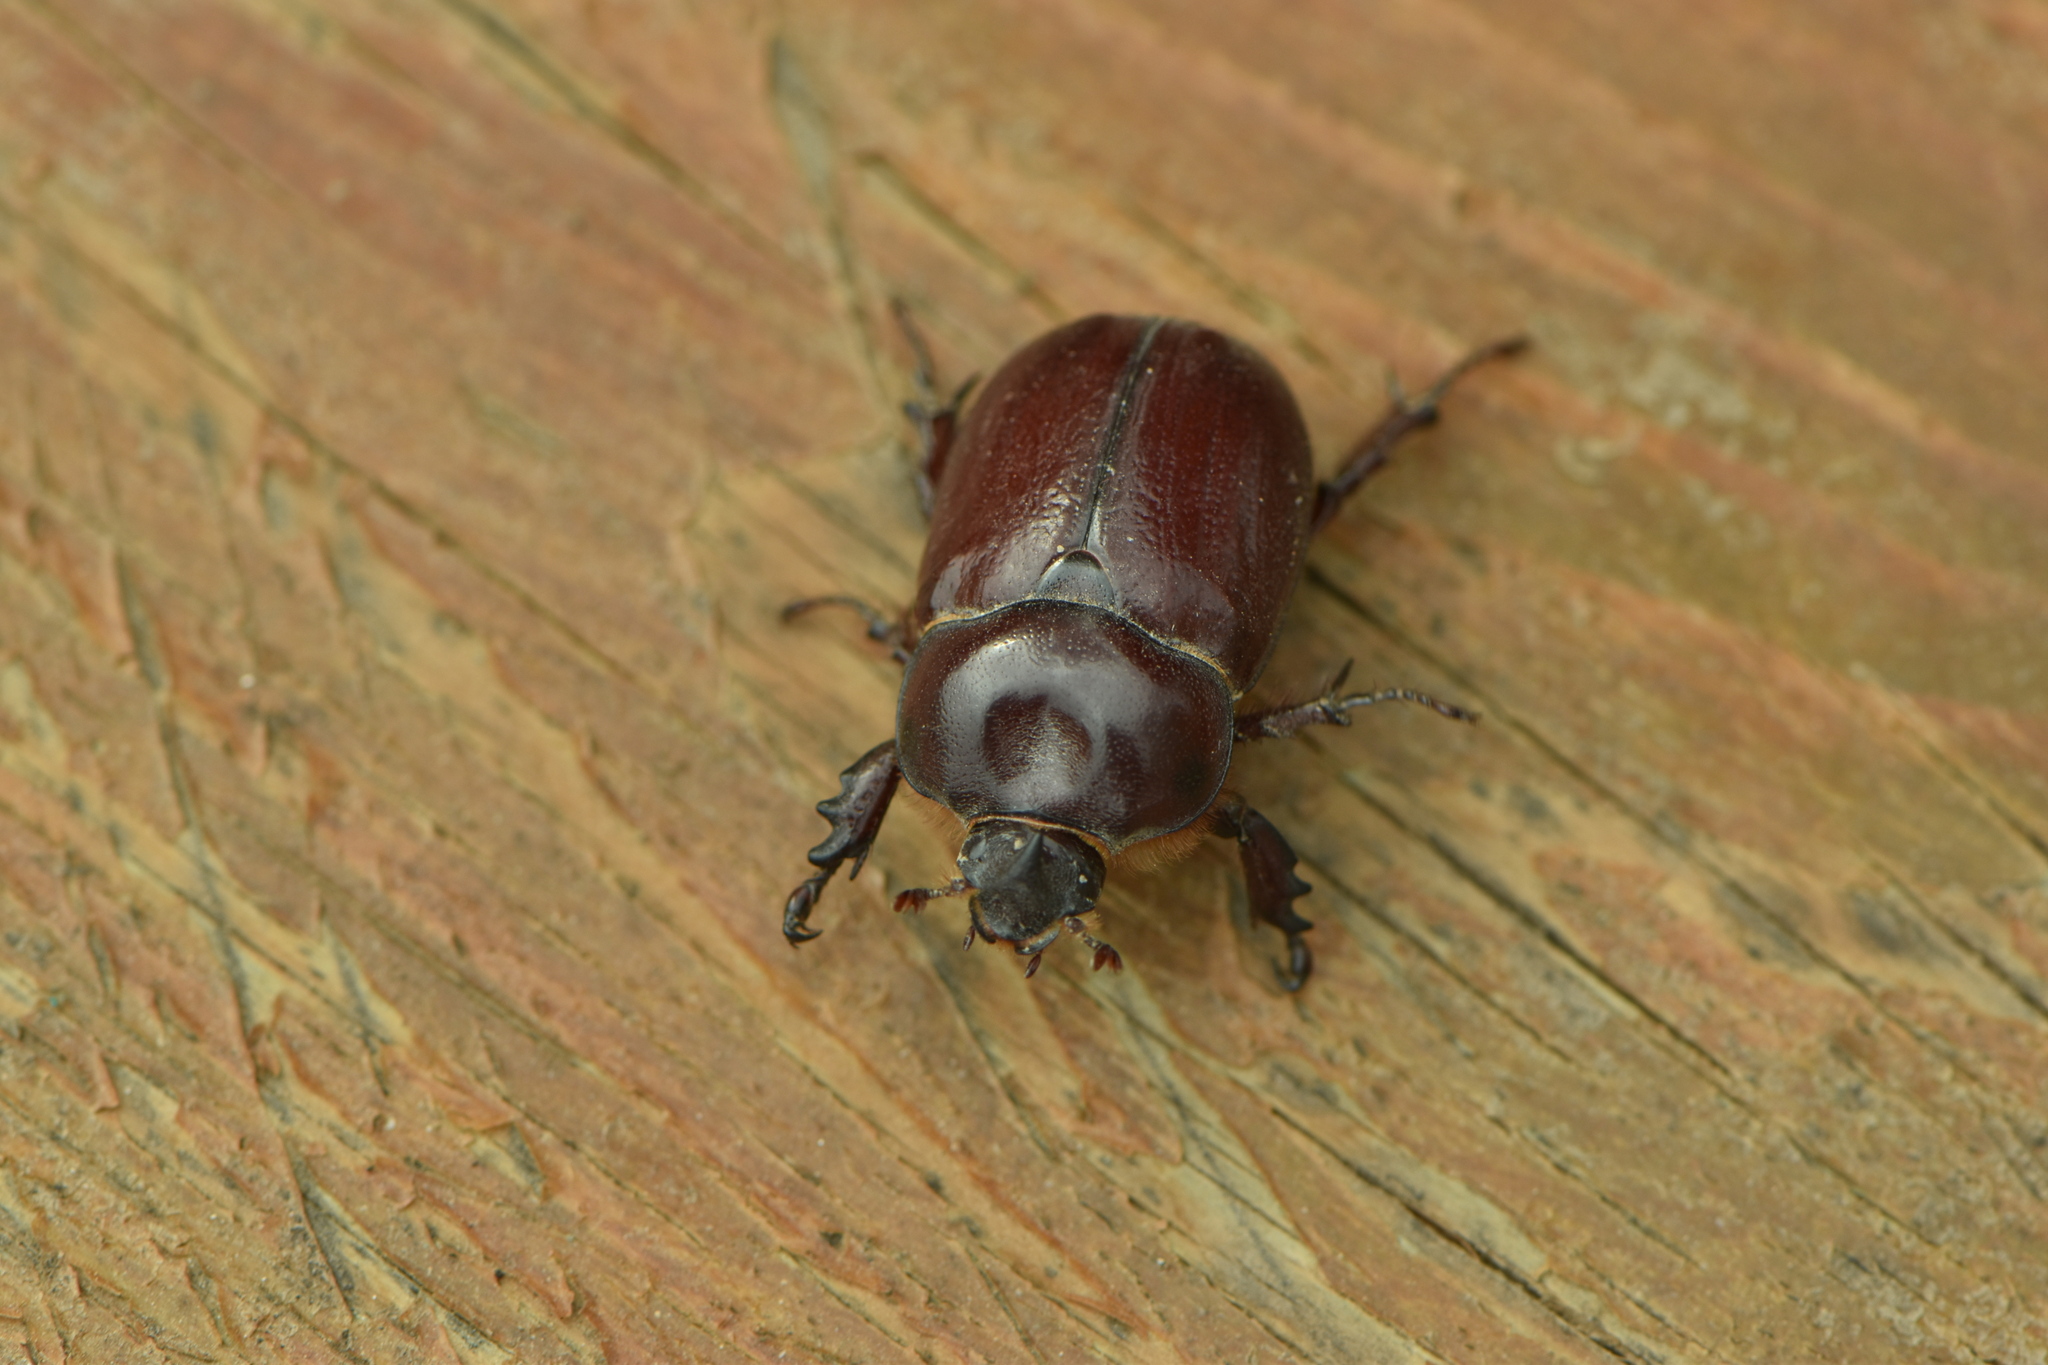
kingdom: Animalia
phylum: Arthropoda
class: Insecta
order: Coleoptera
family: Scarabaeidae
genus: Phyllognathus
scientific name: Phyllognathus excavatus
